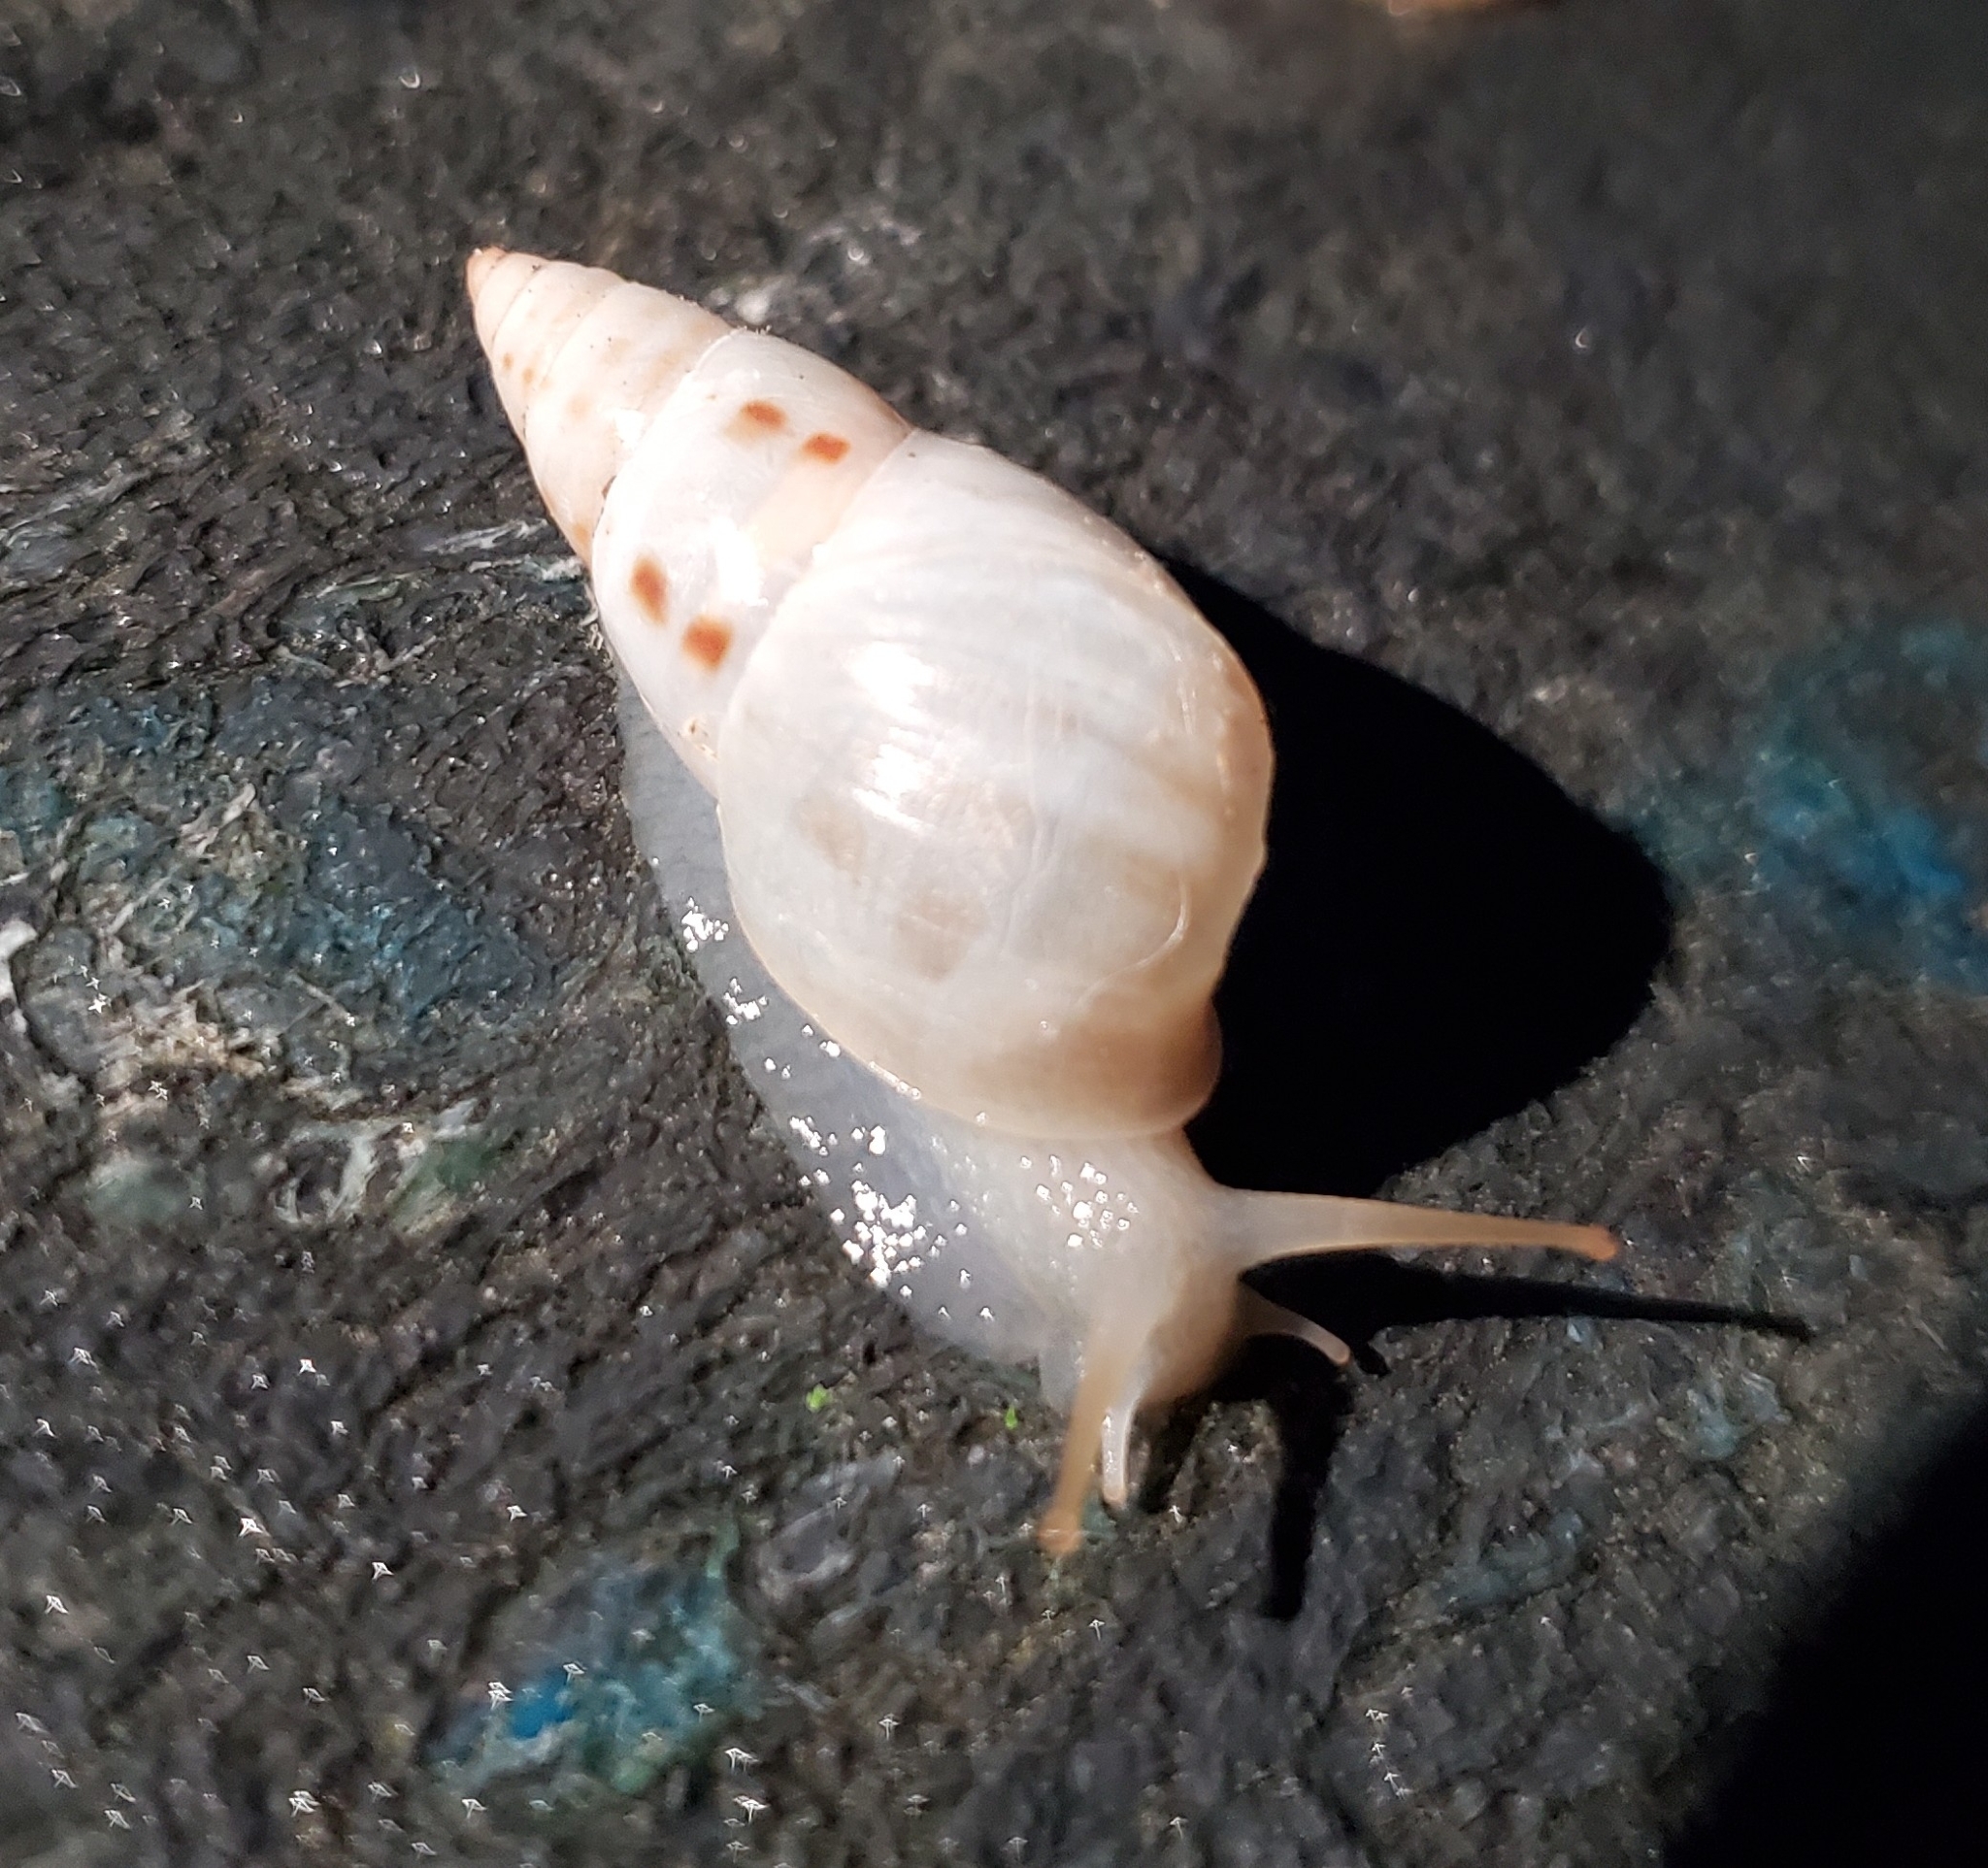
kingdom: Animalia
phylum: Mollusca
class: Gastropoda
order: Stylommatophora
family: Bulimulidae
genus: Drymaeus
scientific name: Drymaeus dormani
